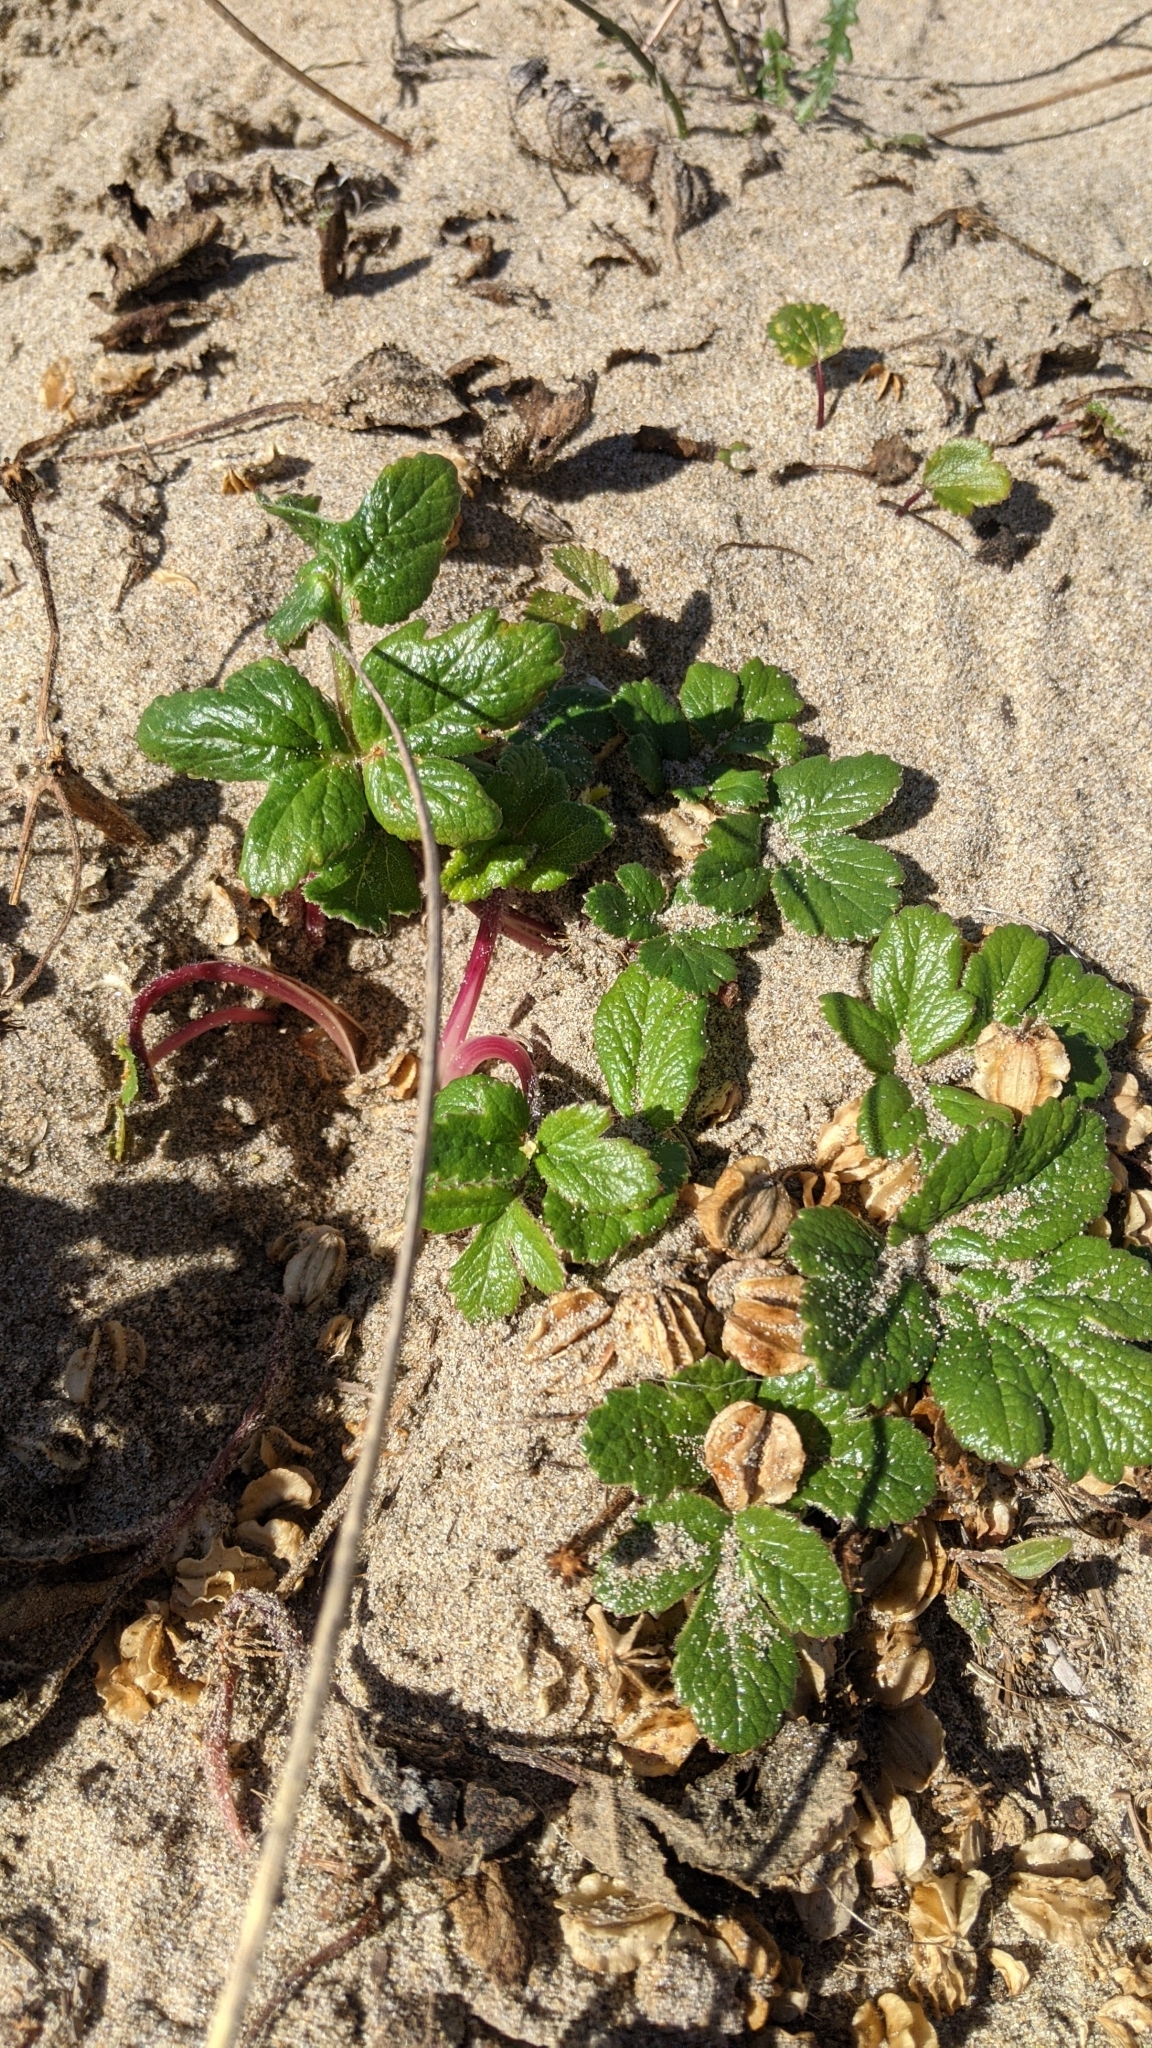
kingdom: Plantae
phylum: Tracheophyta
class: Magnoliopsida
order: Apiales
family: Apiaceae
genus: Glehnia
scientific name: Glehnia littoralis
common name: Beach silvertop
